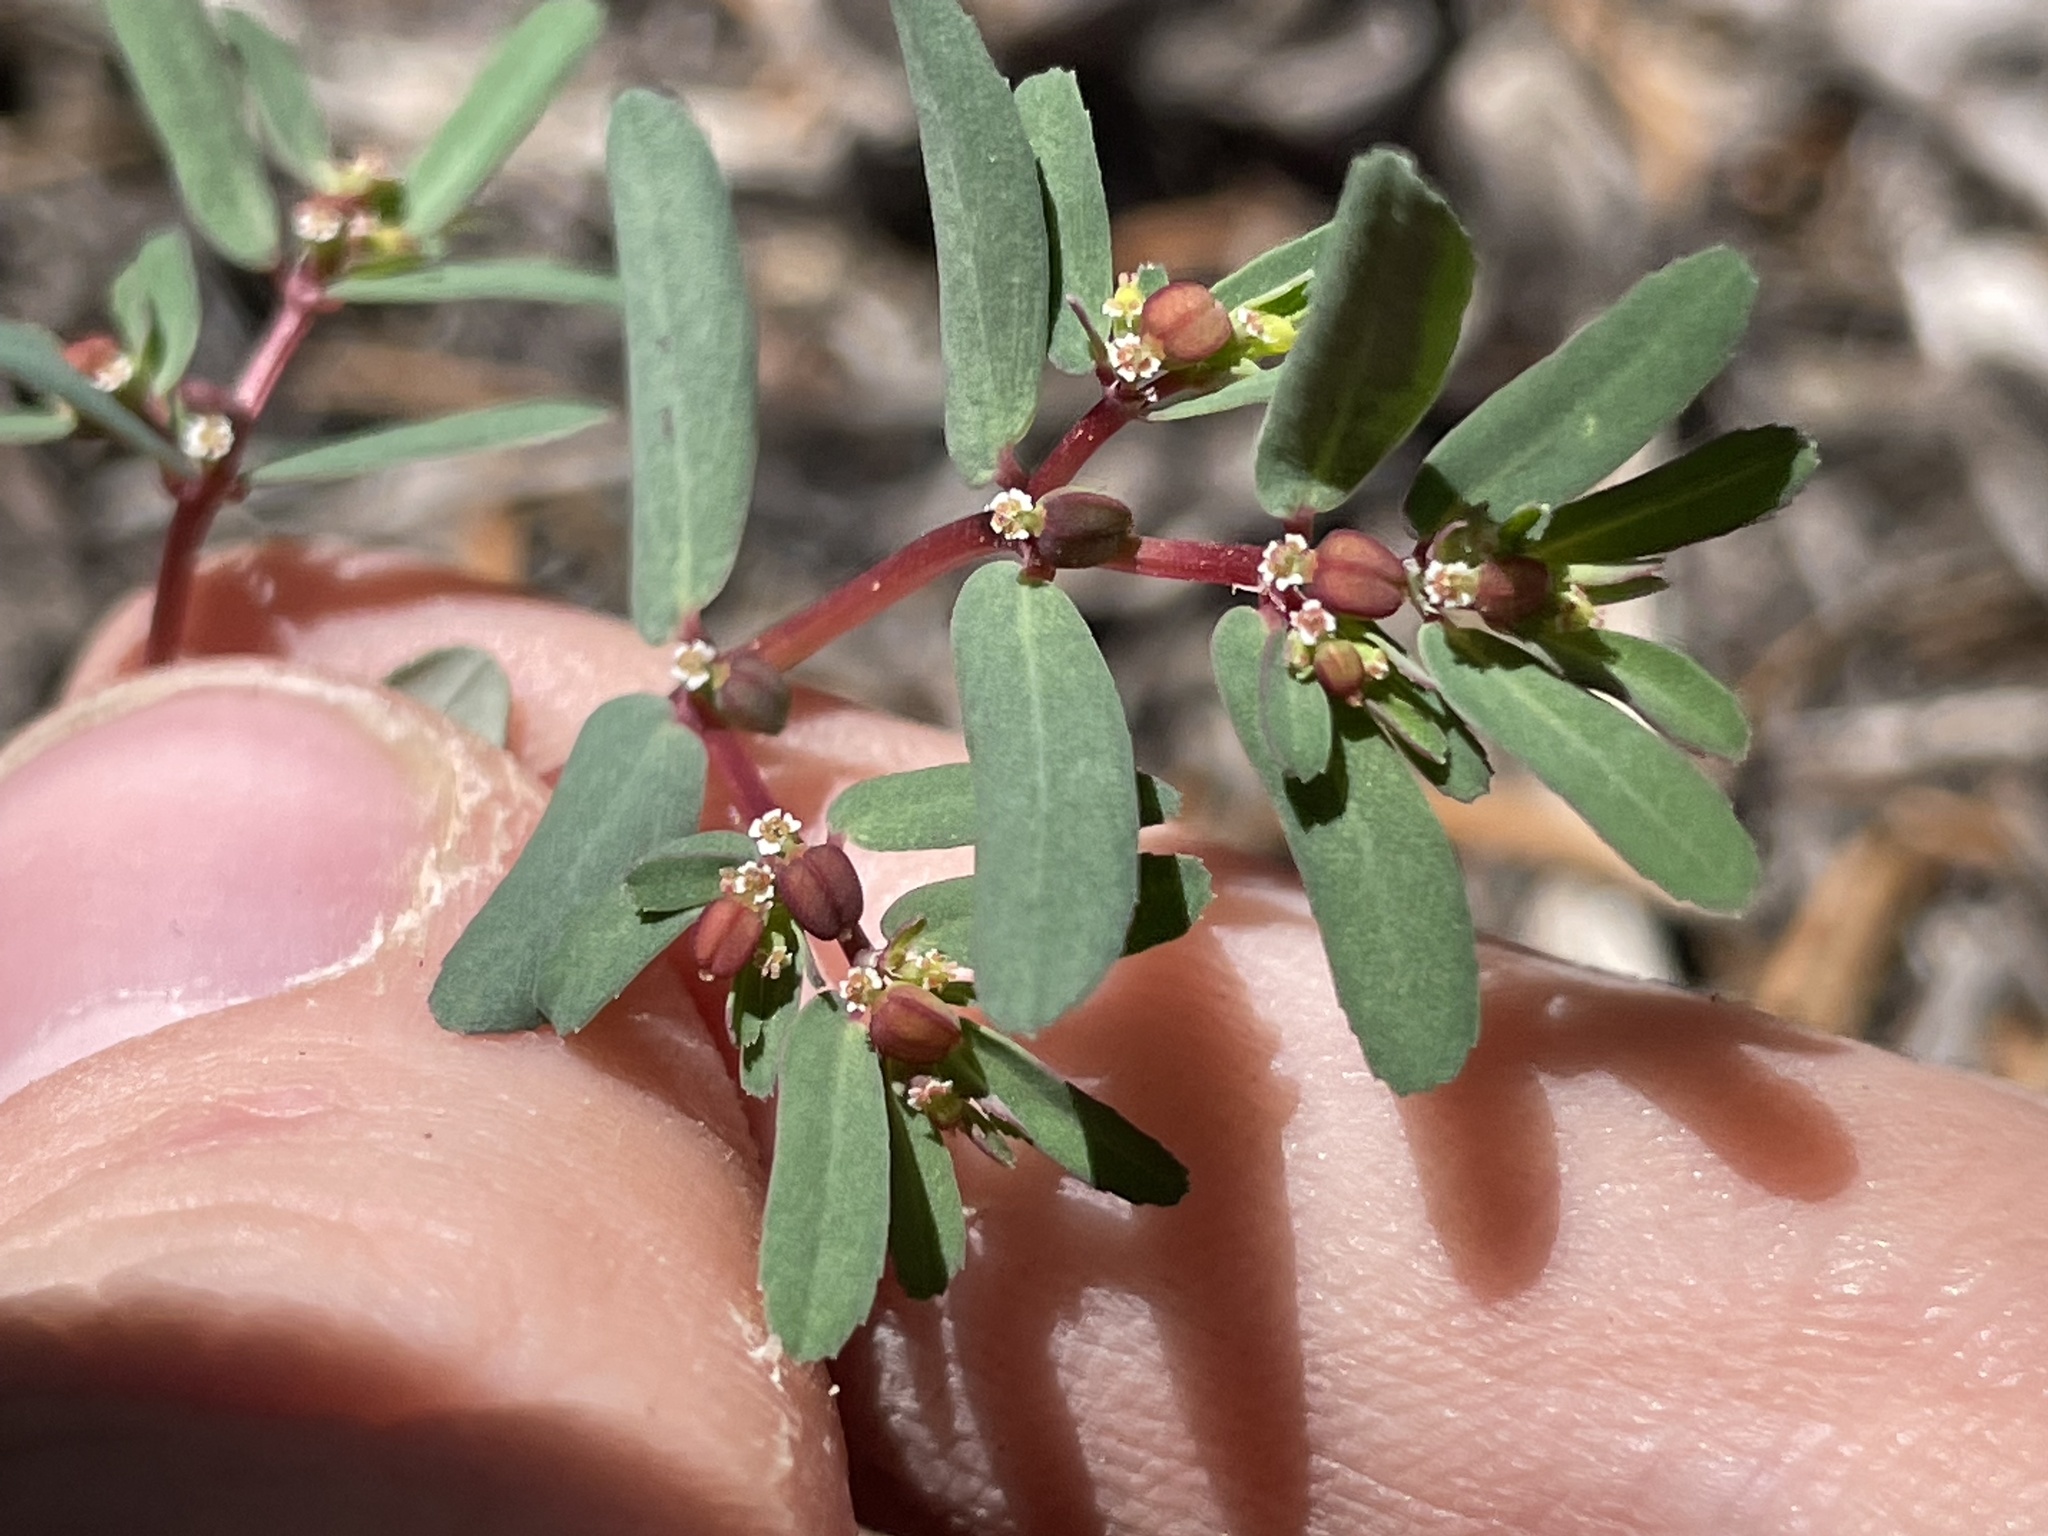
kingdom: Plantae
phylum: Tracheophyta
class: Magnoliopsida
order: Malpighiales
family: Euphorbiaceae
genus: Euphorbia
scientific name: Euphorbia serpillifolia
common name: Thyme-leaf spurge
